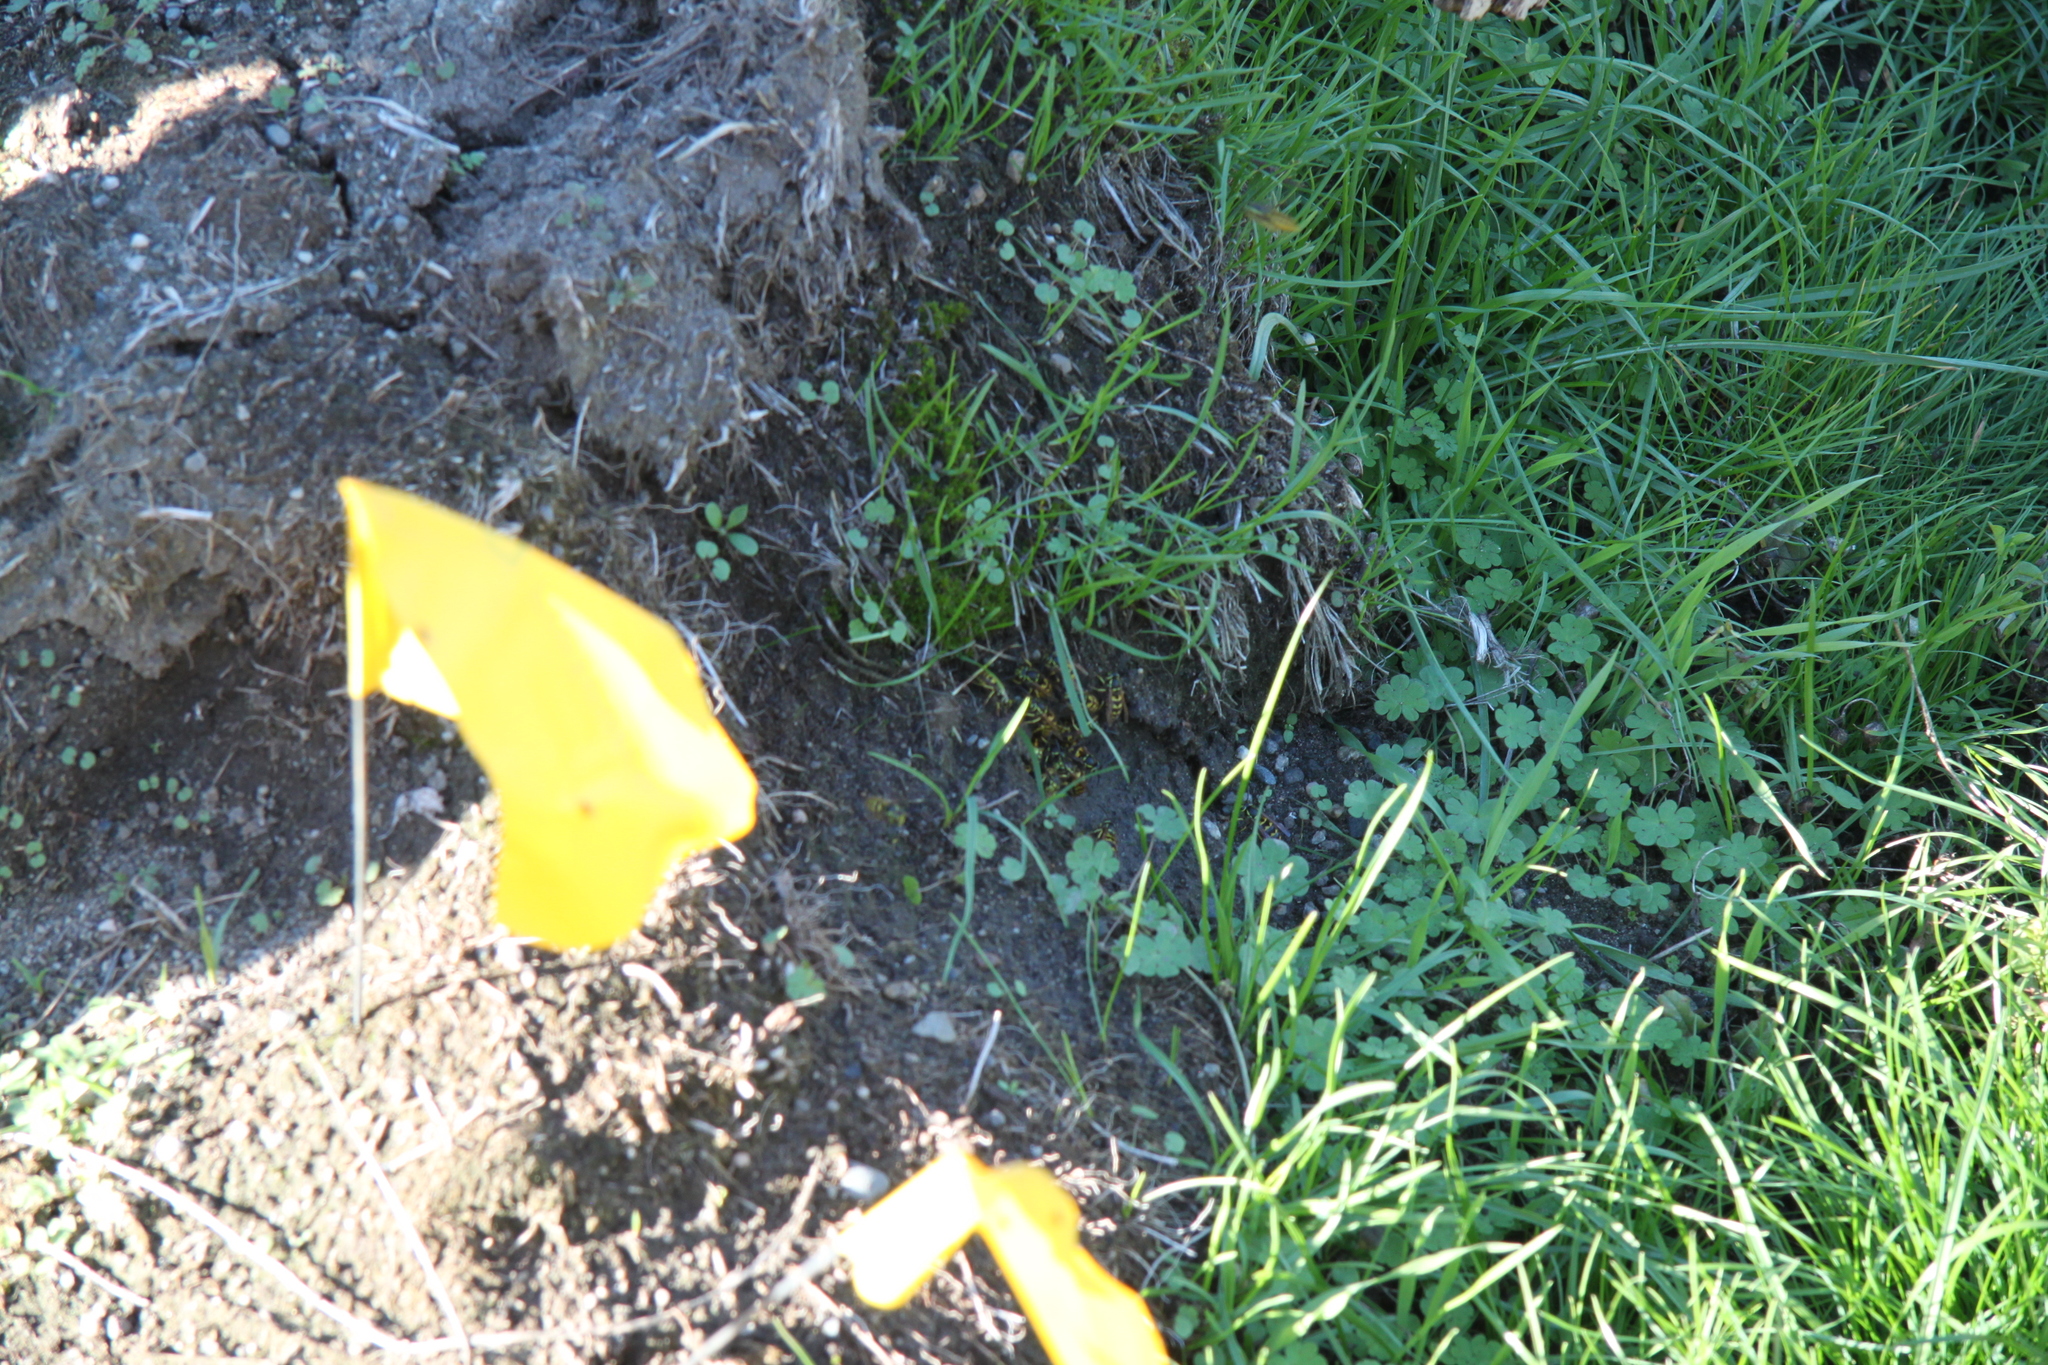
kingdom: Animalia
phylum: Arthropoda
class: Insecta
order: Hymenoptera
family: Vespidae
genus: Vespula
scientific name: Vespula
